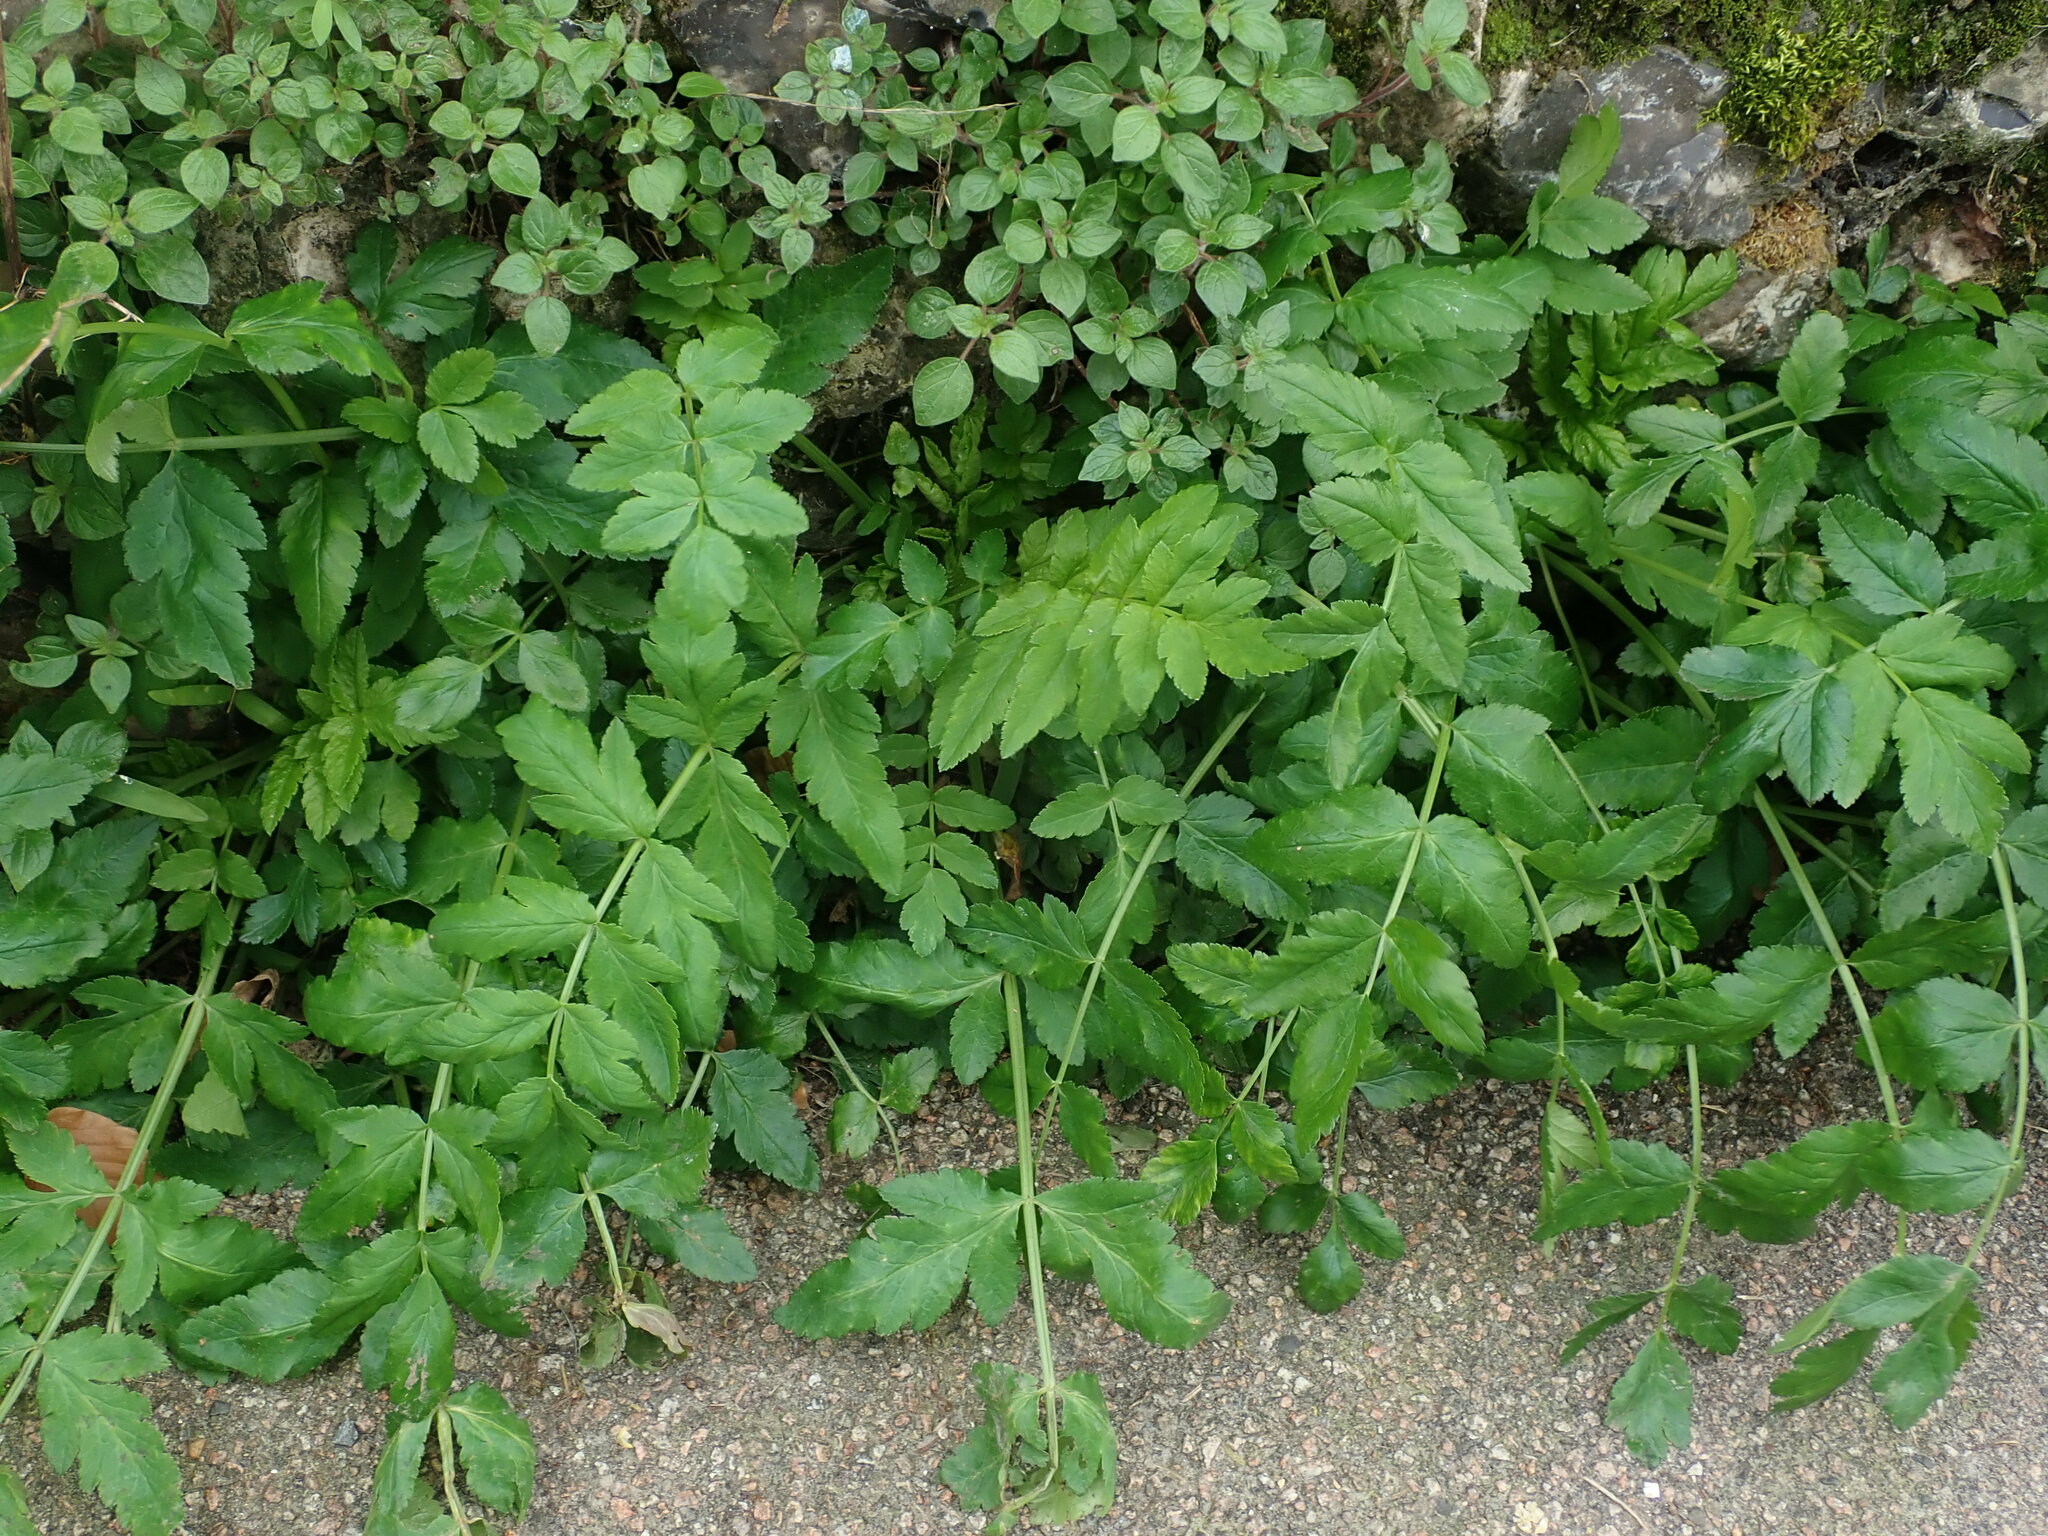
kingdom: Plantae
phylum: Tracheophyta
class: Magnoliopsida
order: Apiales
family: Apiaceae
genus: Sison
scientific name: Sison amomum
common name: Stone-parsley
